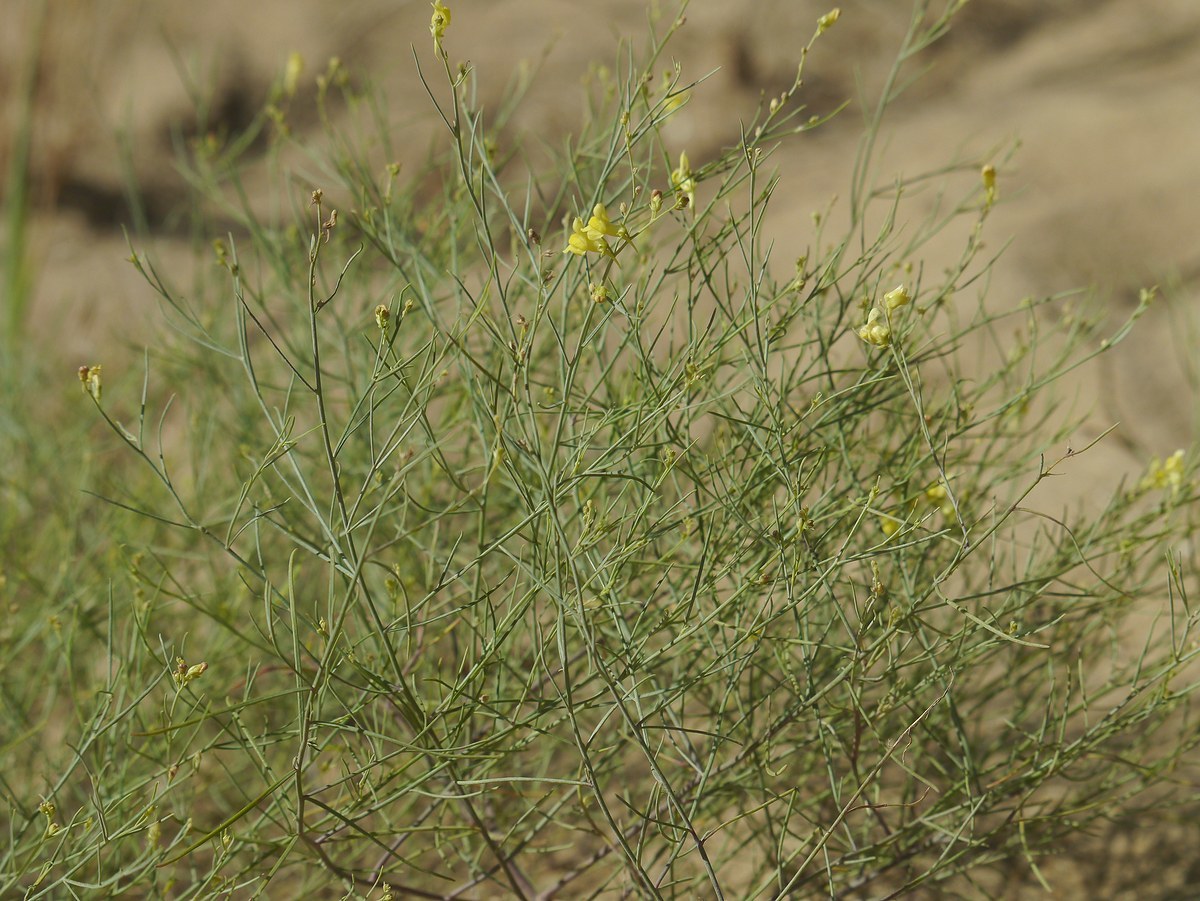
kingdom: Plantae
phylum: Tracheophyta
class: Magnoliopsida
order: Lamiales
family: Plantaginaceae
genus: Linaria
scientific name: Linaria odora
